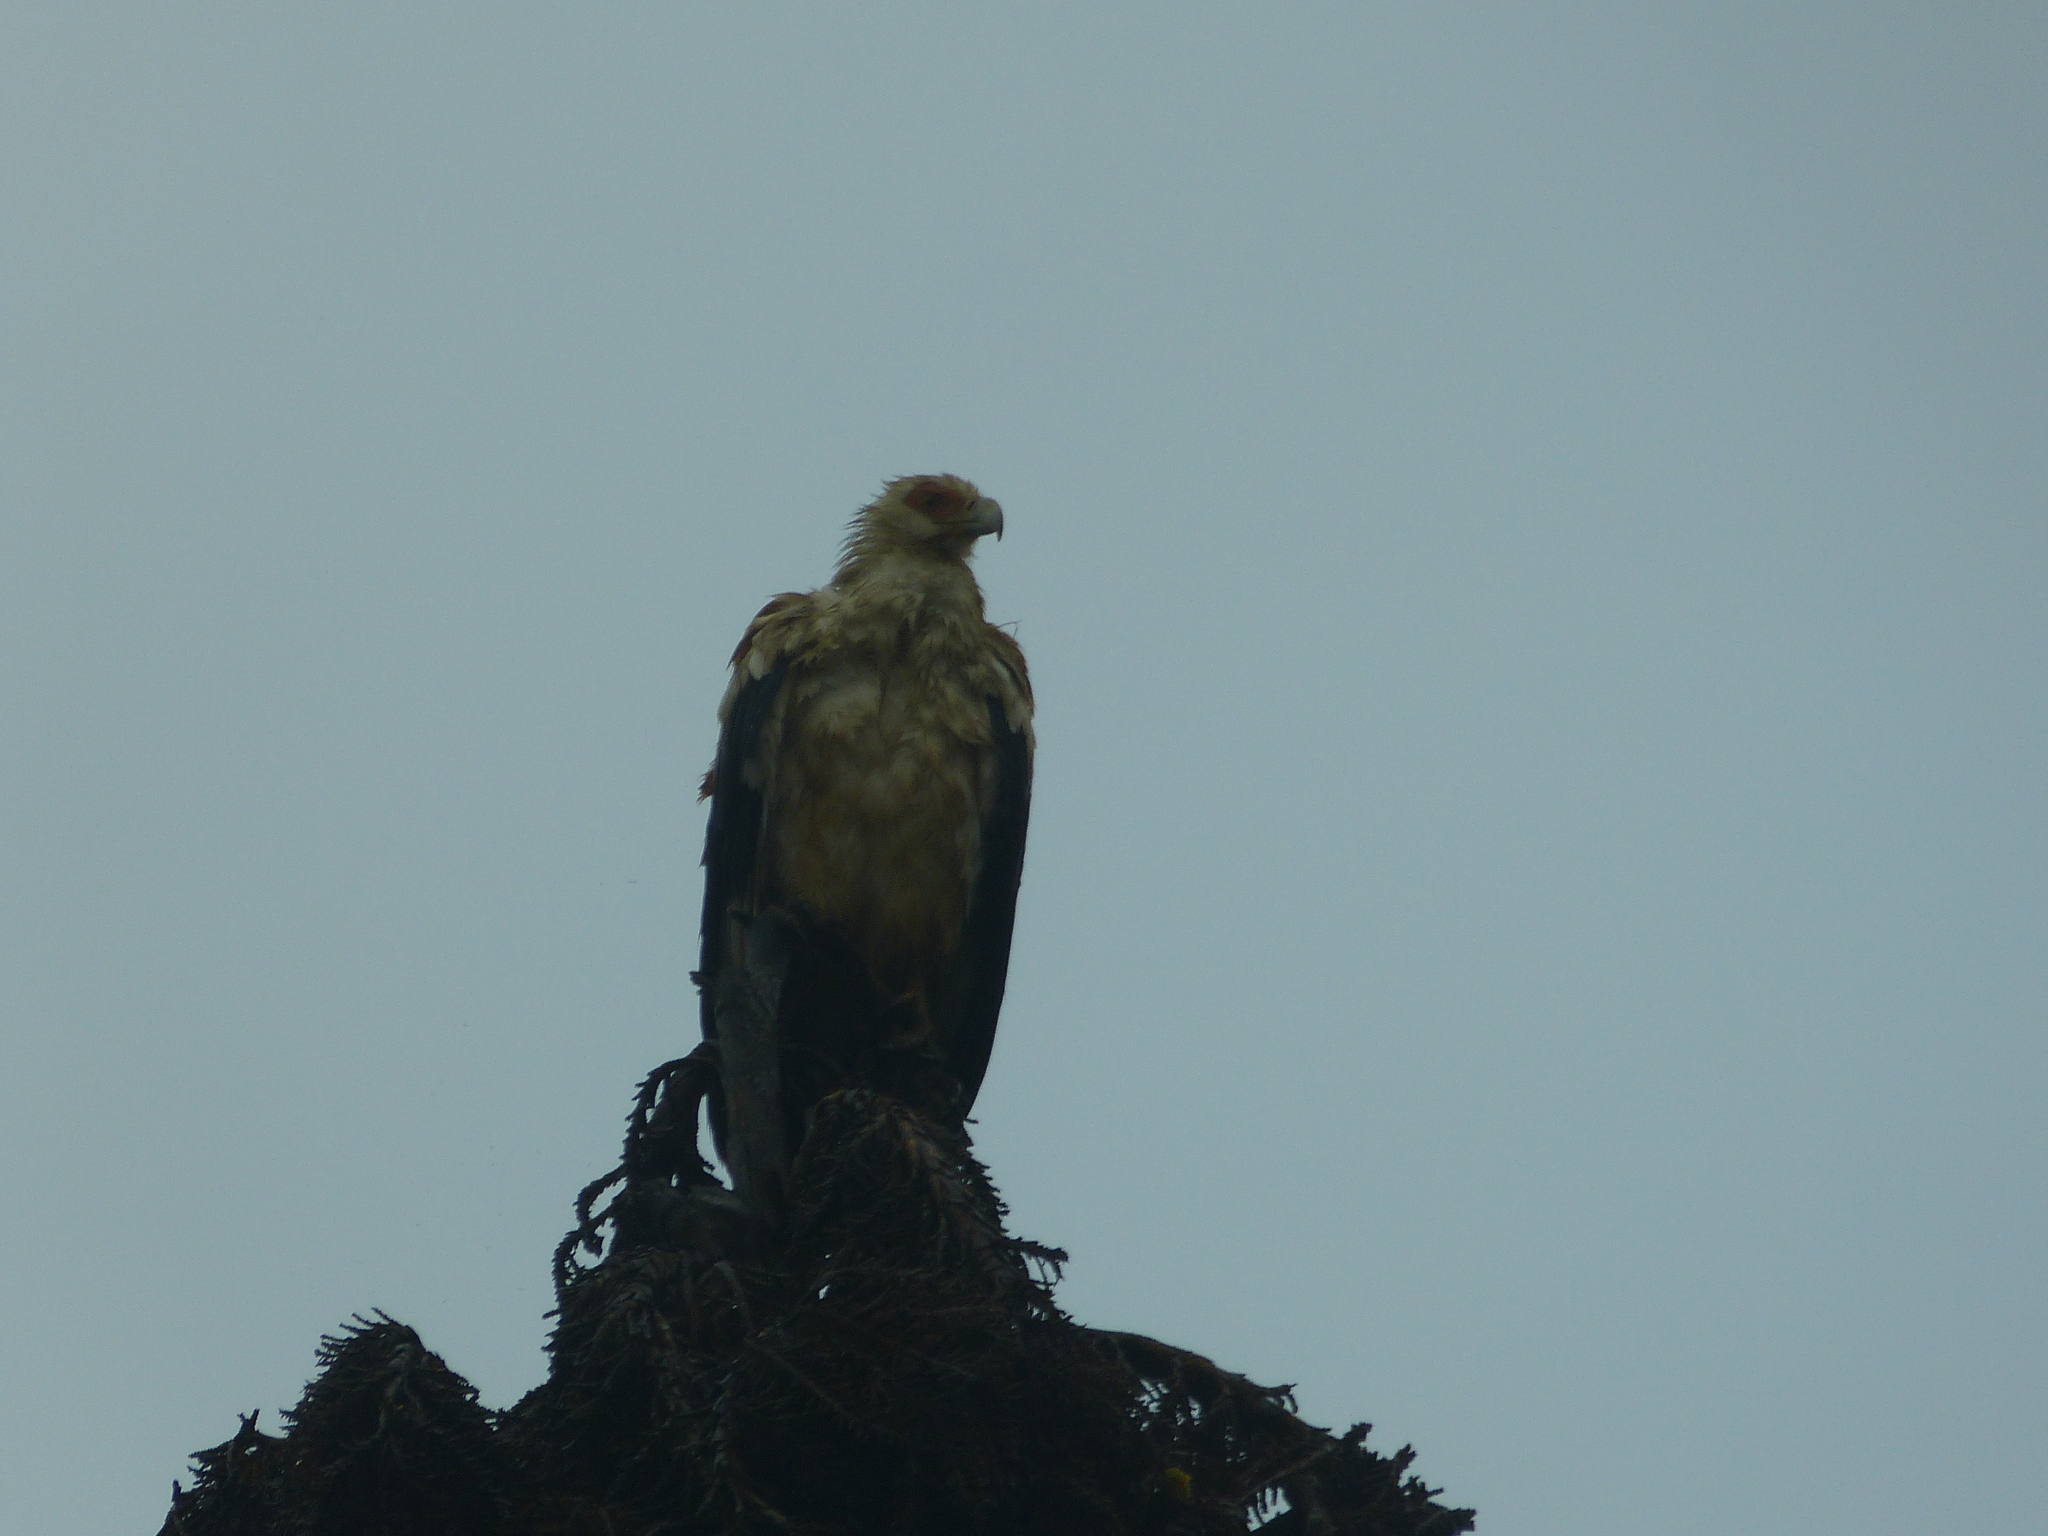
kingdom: Animalia
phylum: Chordata
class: Aves
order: Accipitriformes
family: Accipitridae
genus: Gypohierax
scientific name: Gypohierax angolensis
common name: Palm-nut vulture
